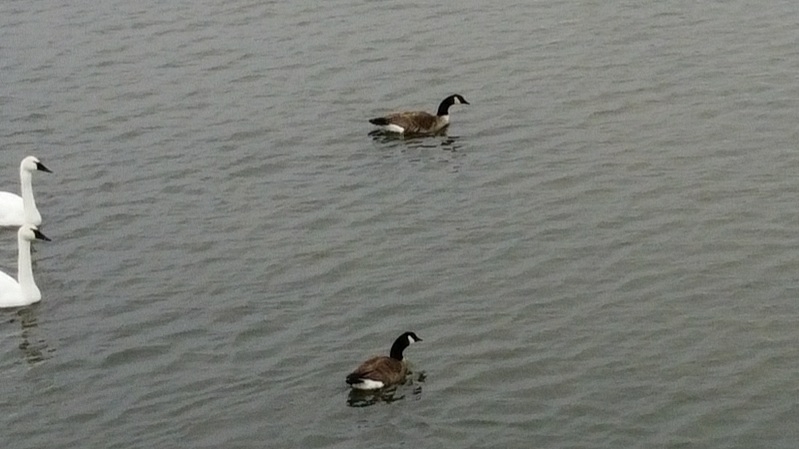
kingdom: Animalia
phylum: Chordata
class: Aves
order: Anseriformes
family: Anatidae
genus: Branta
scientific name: Branta canadensis
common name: Canada goose
